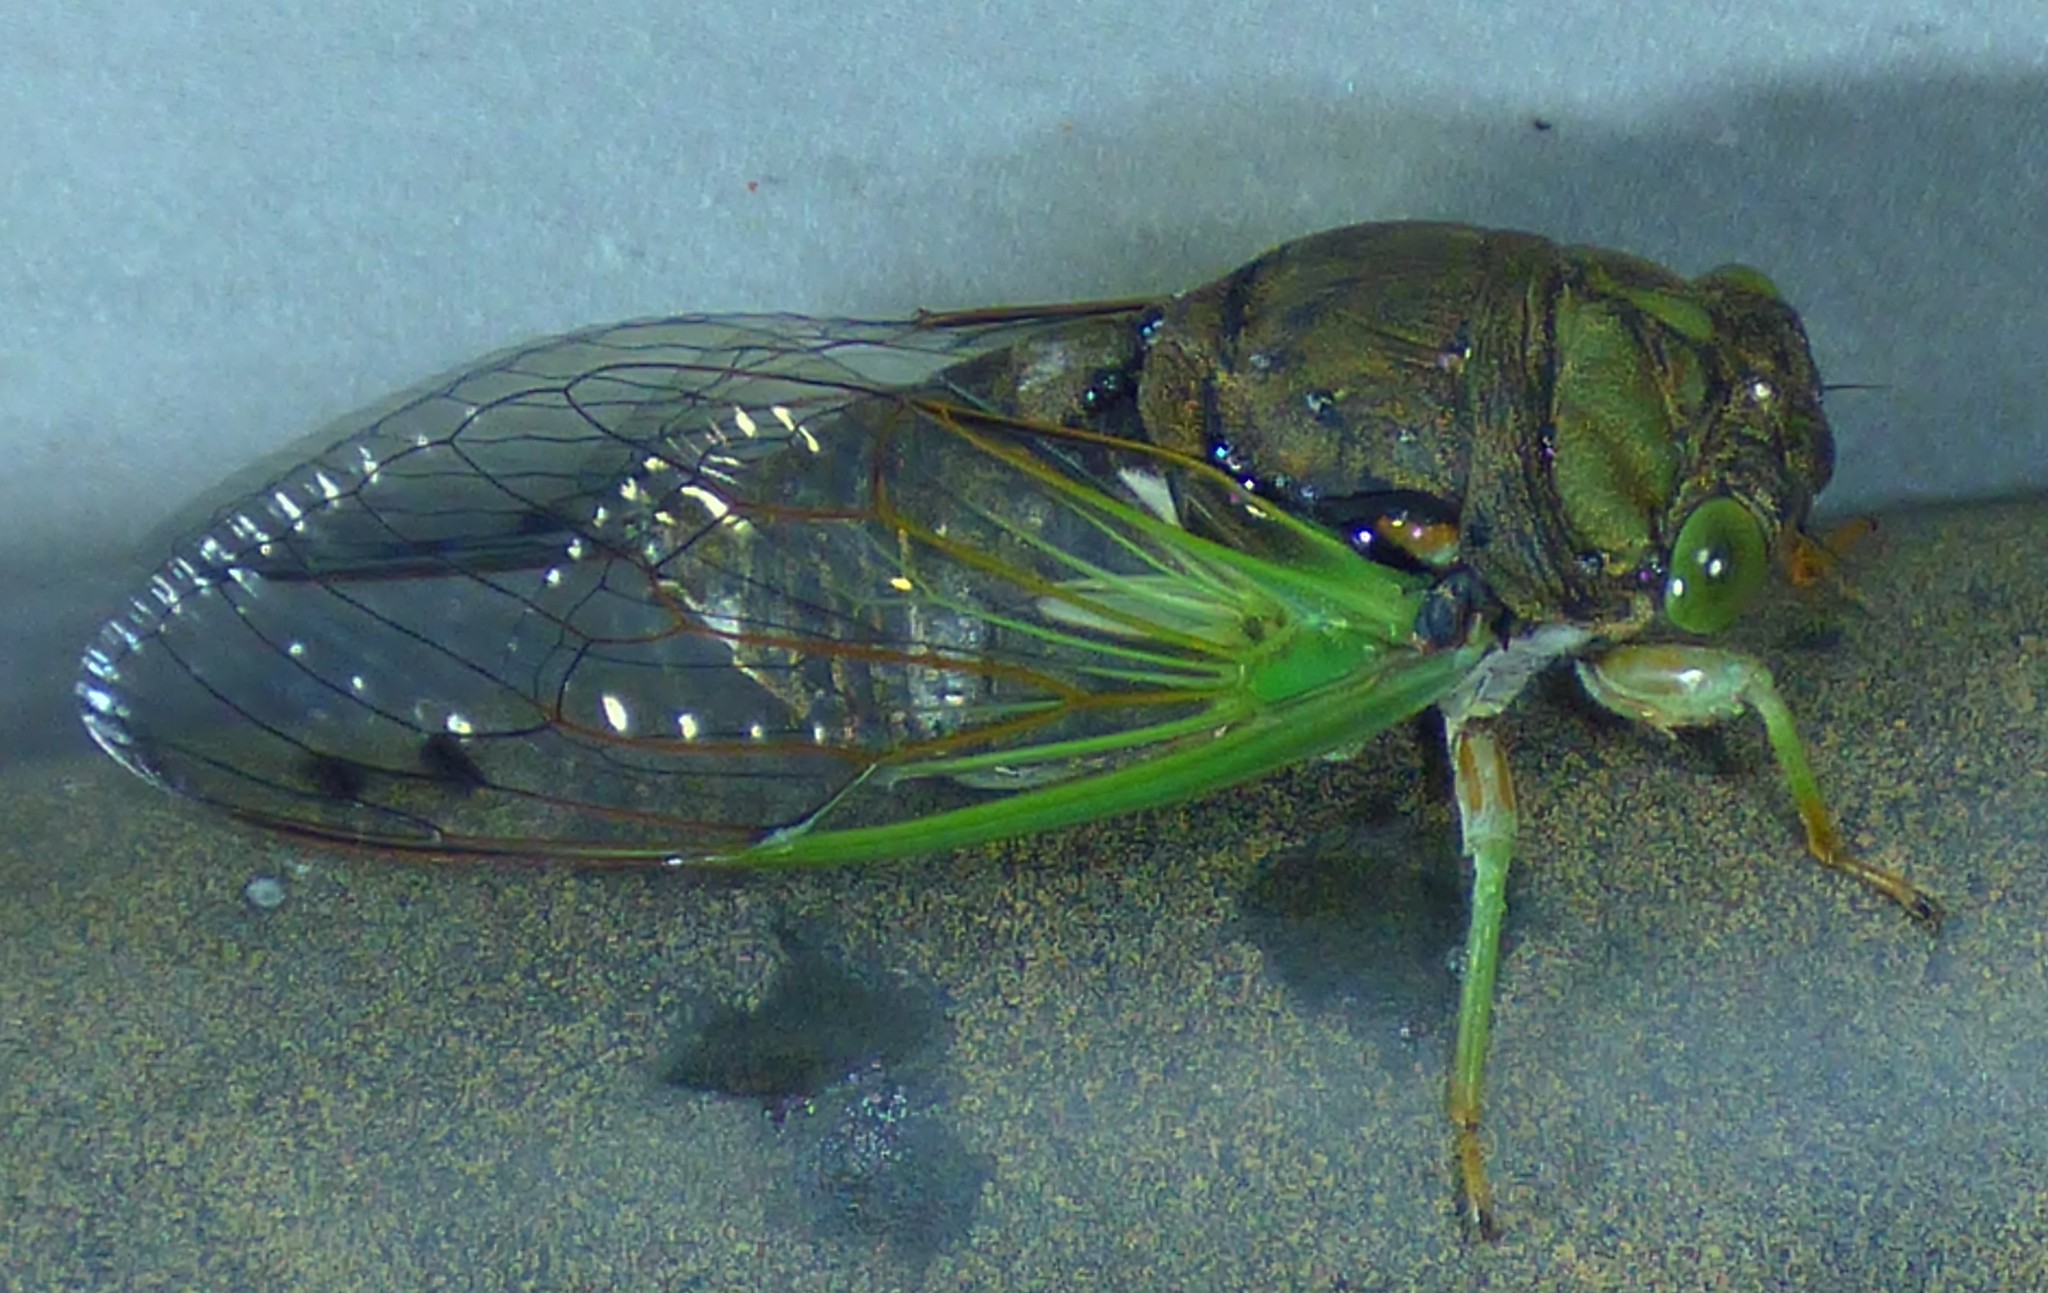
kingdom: Animalia
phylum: Arthropoda
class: Insecta
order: Hemiptera
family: Cicadidae
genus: Neotibicen
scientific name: Neotibicen tibicen
